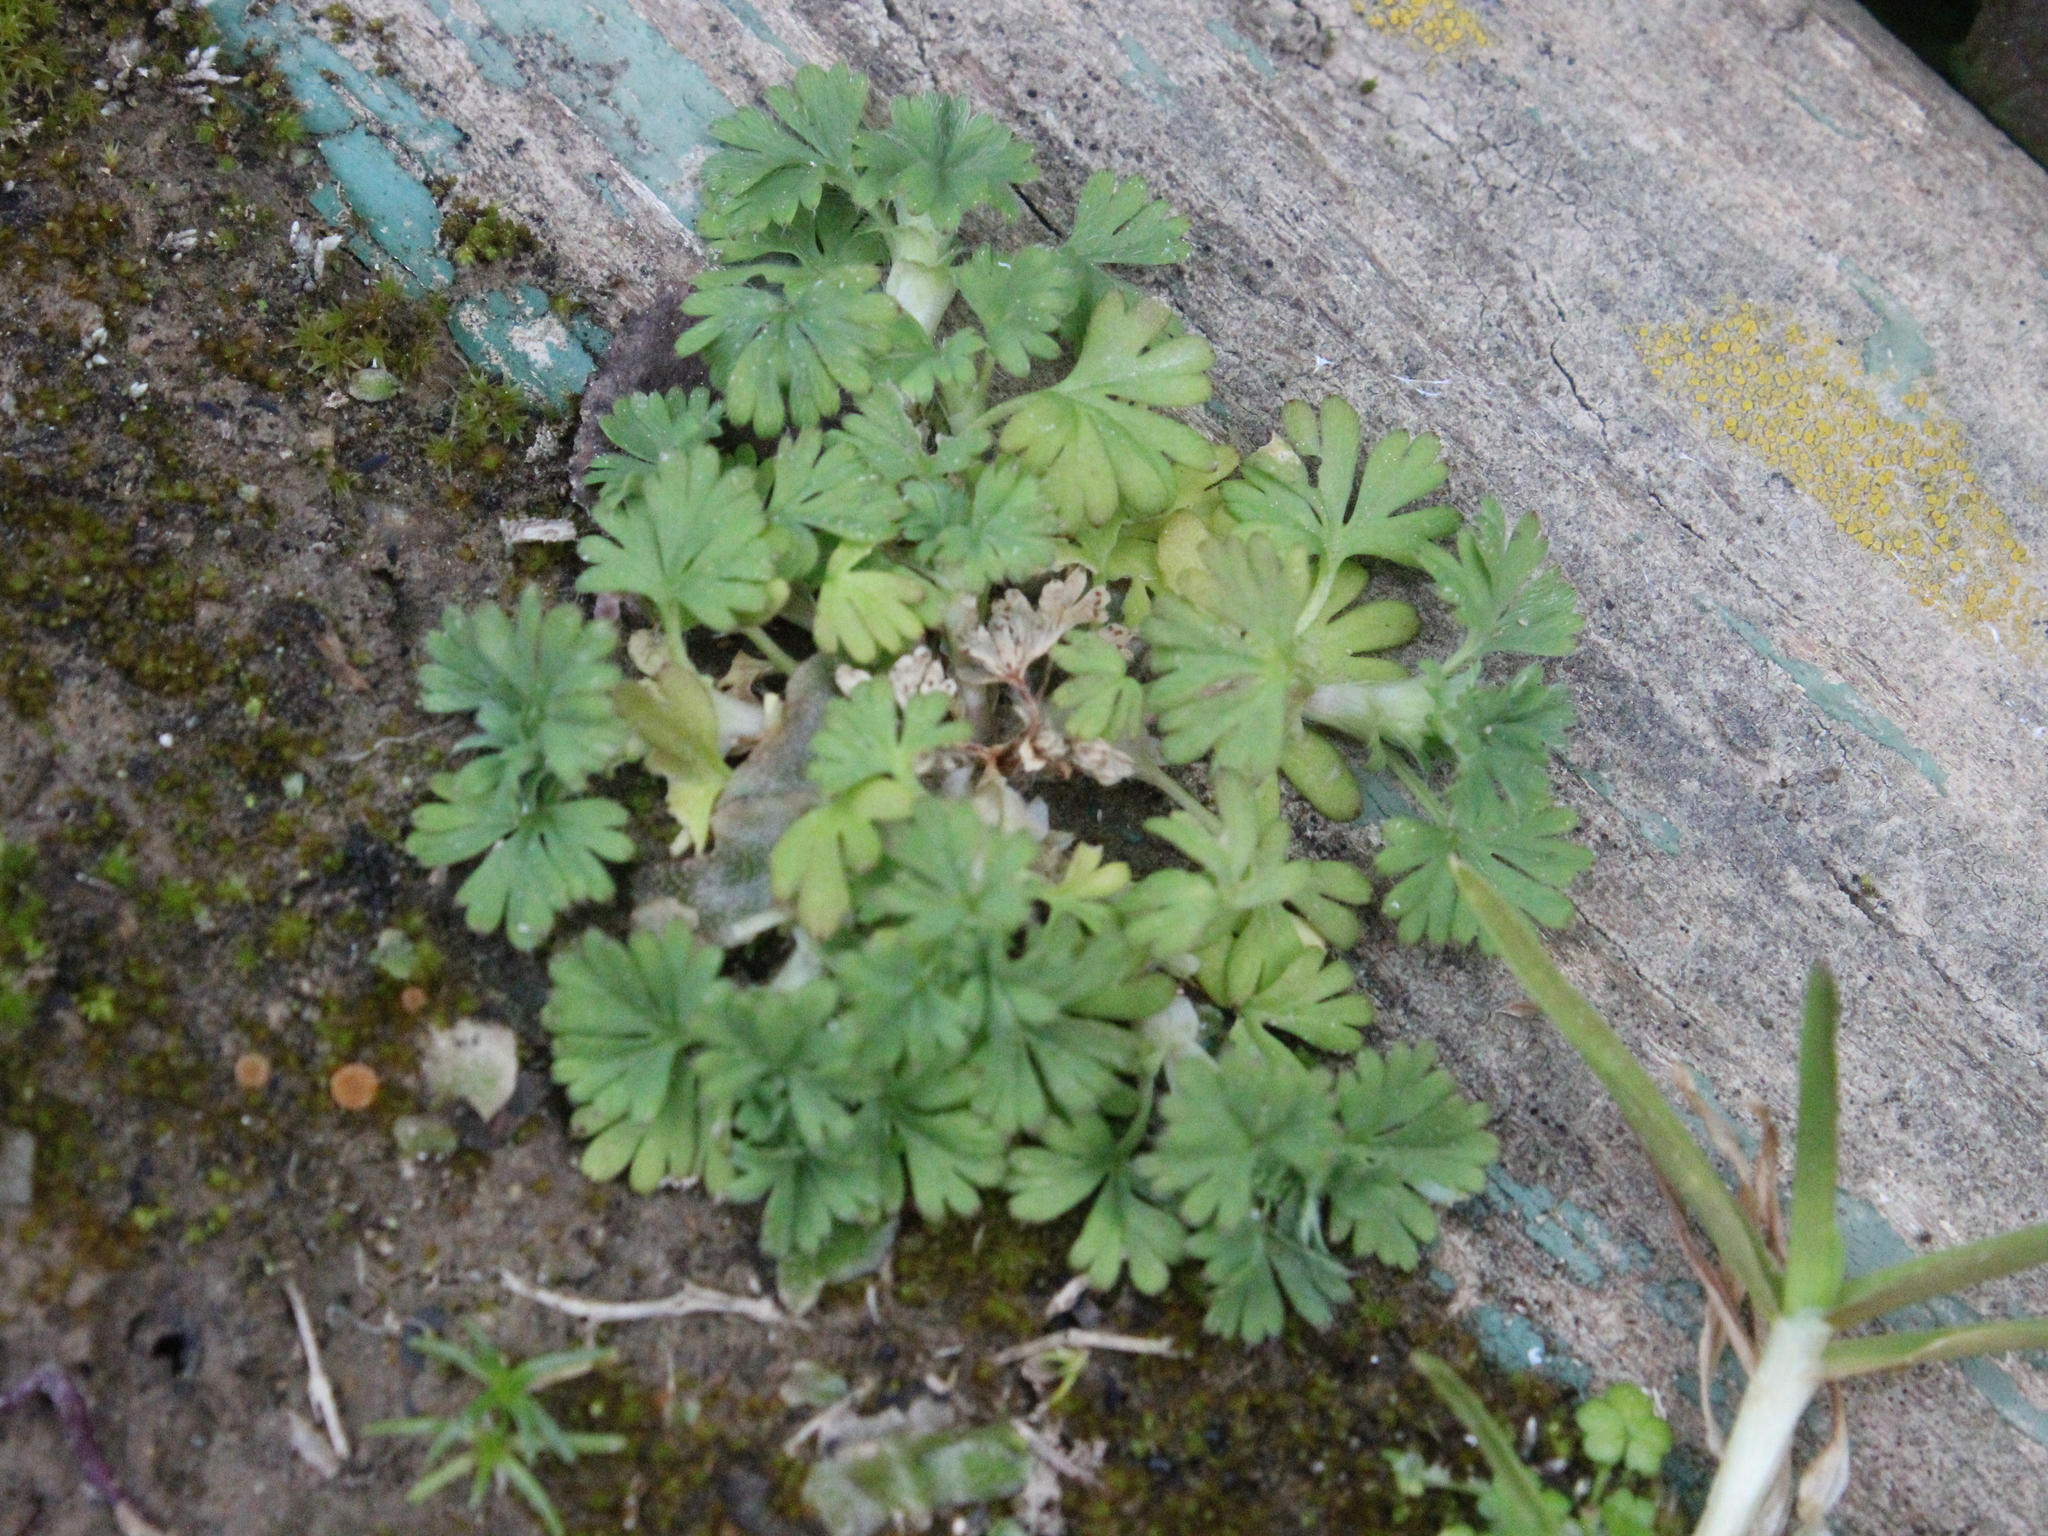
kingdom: Plantae
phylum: Tracheophyta
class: Magnoliopsida
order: Rosales
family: Rosaceae
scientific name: Rosaceae
